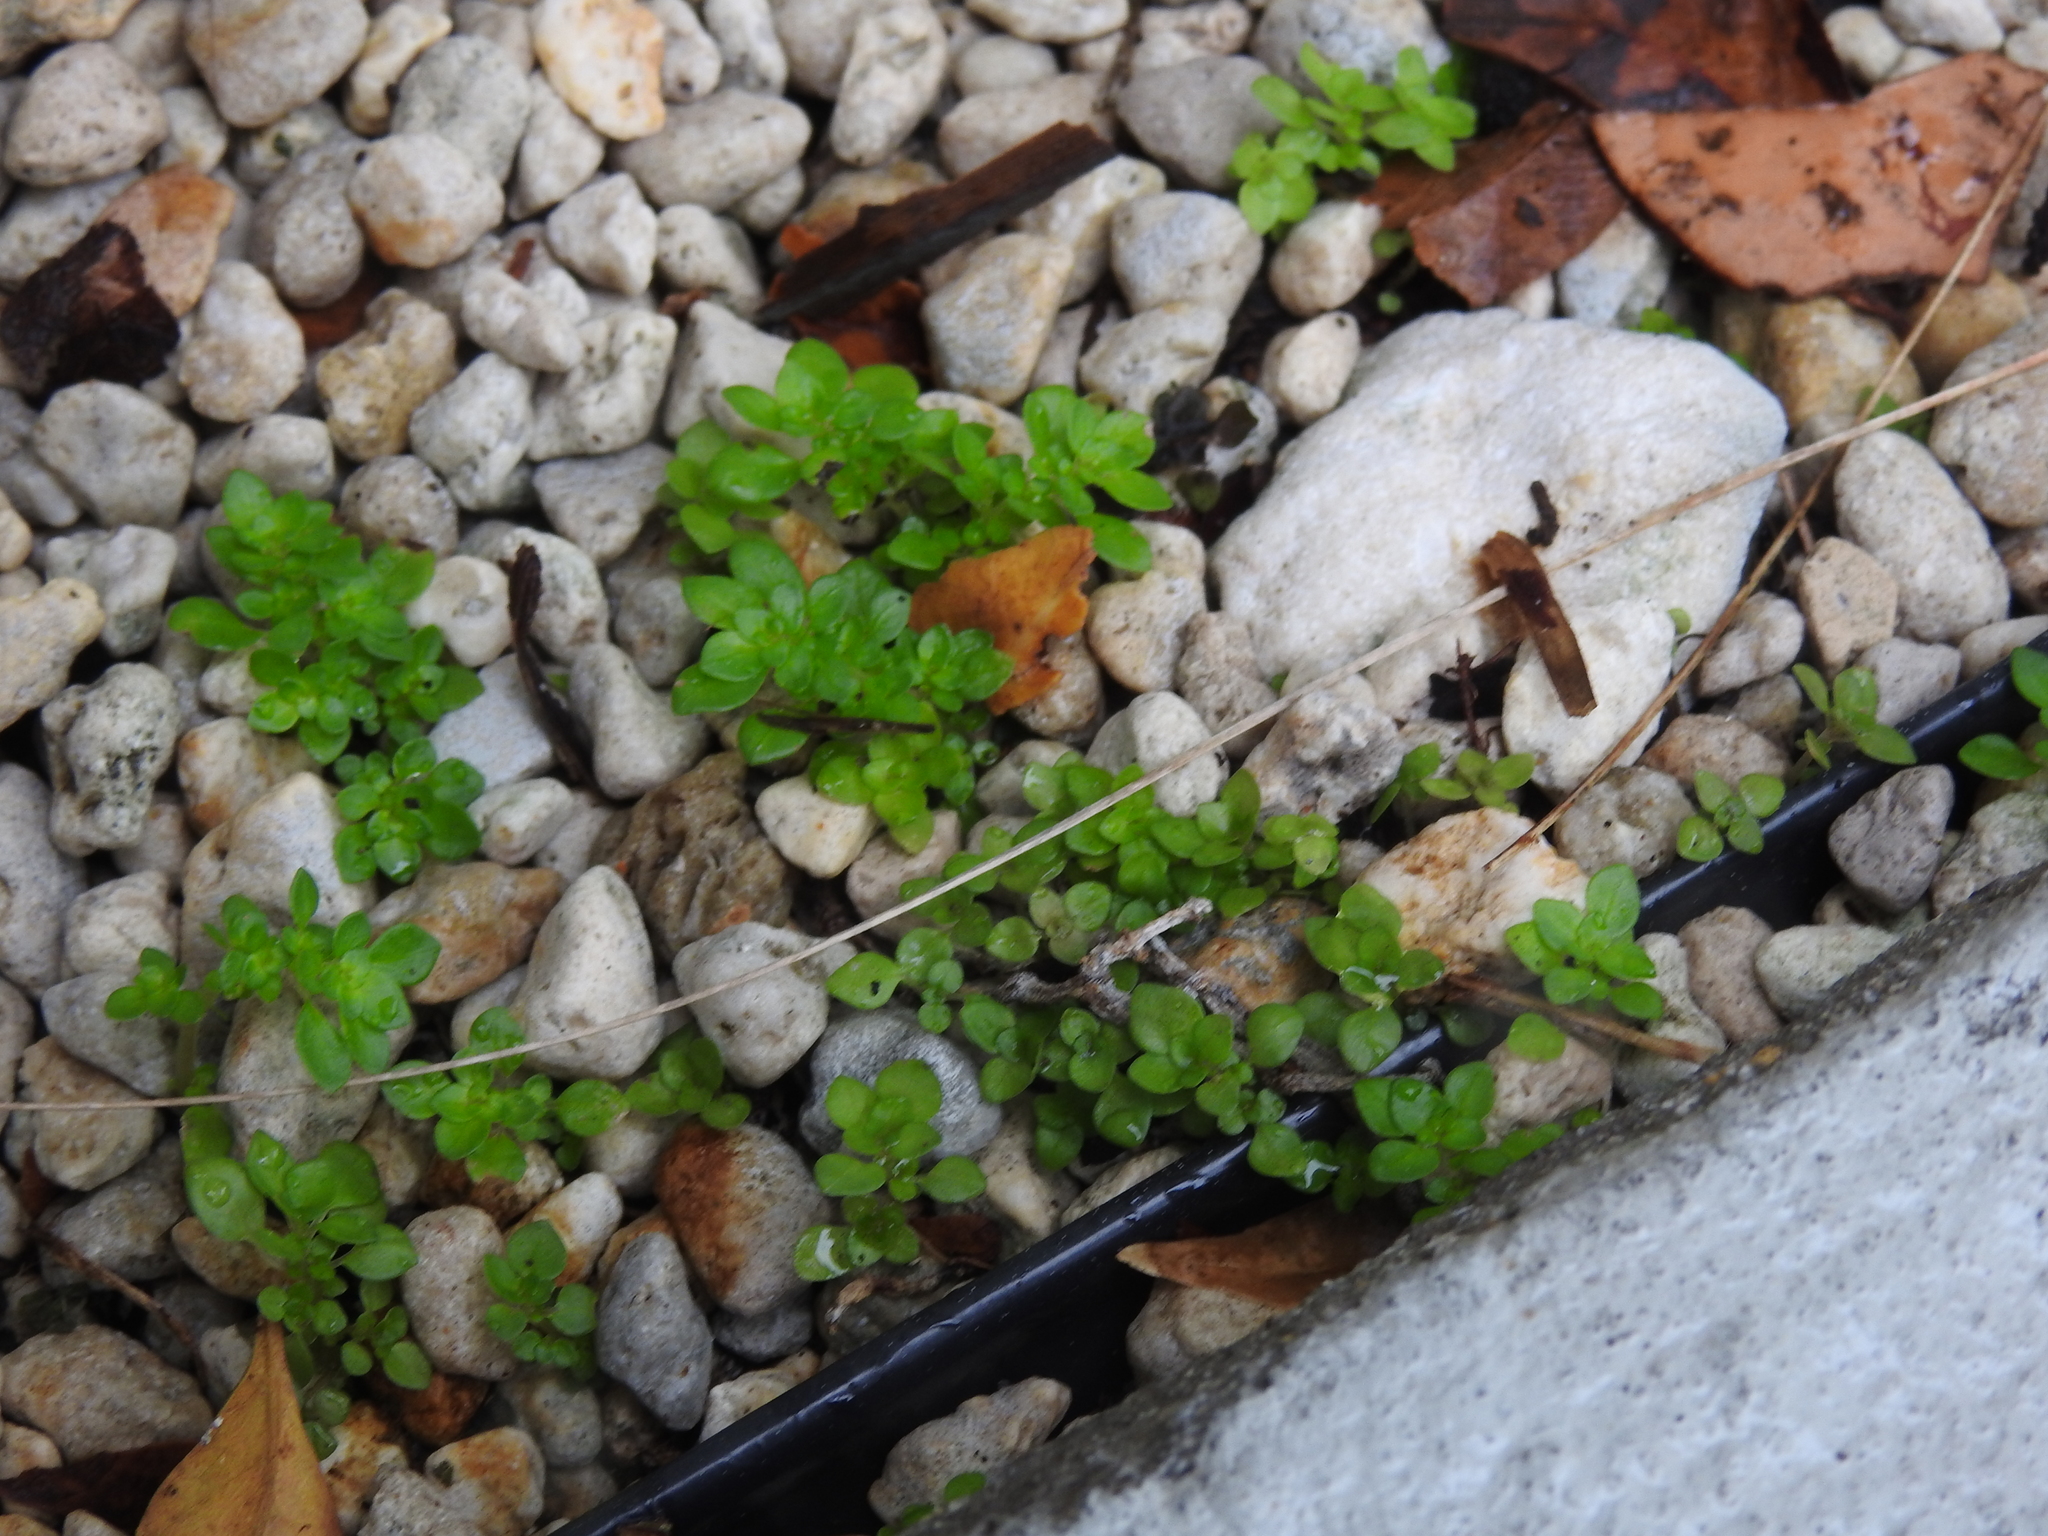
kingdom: Plantae
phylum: Tracheophyta
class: Magnoliopsida
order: Rosales
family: Urticaceae
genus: Parietaria
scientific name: Parietaria floridana
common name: Florida pellitory
